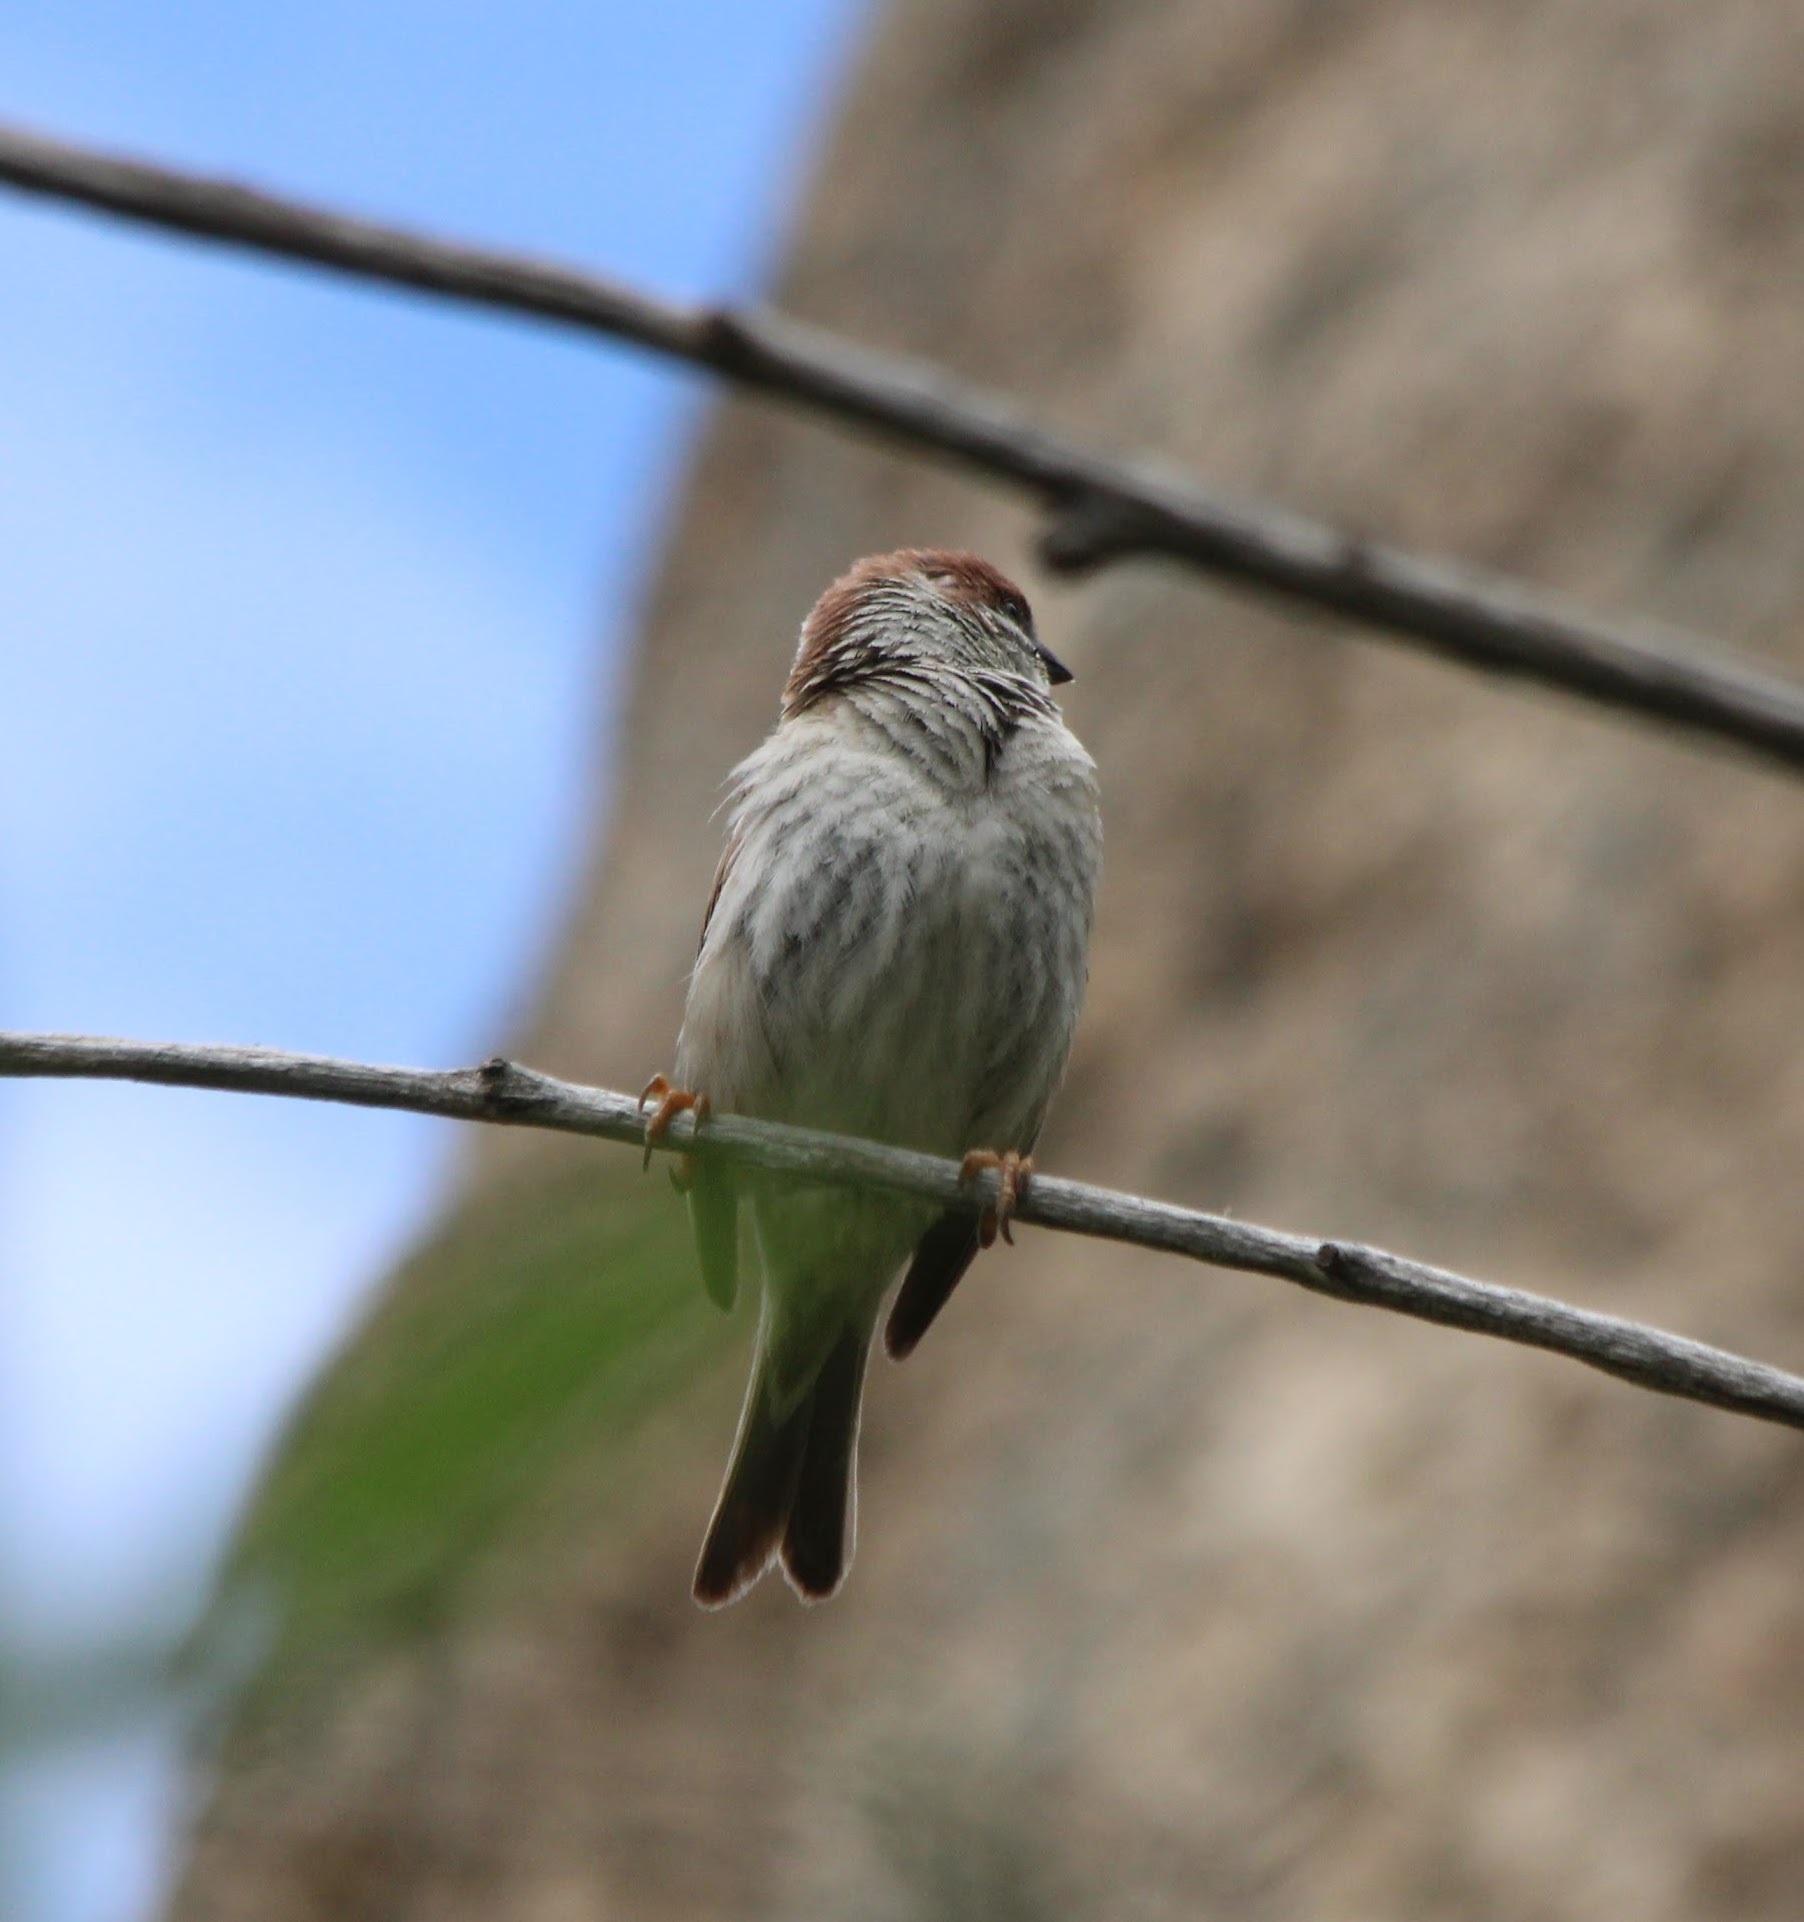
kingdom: Animalia
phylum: Chordata
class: Aves
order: Passeriformes
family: Passeridae
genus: Passer
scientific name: Passer montanus
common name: Eurasian tree sparrow
